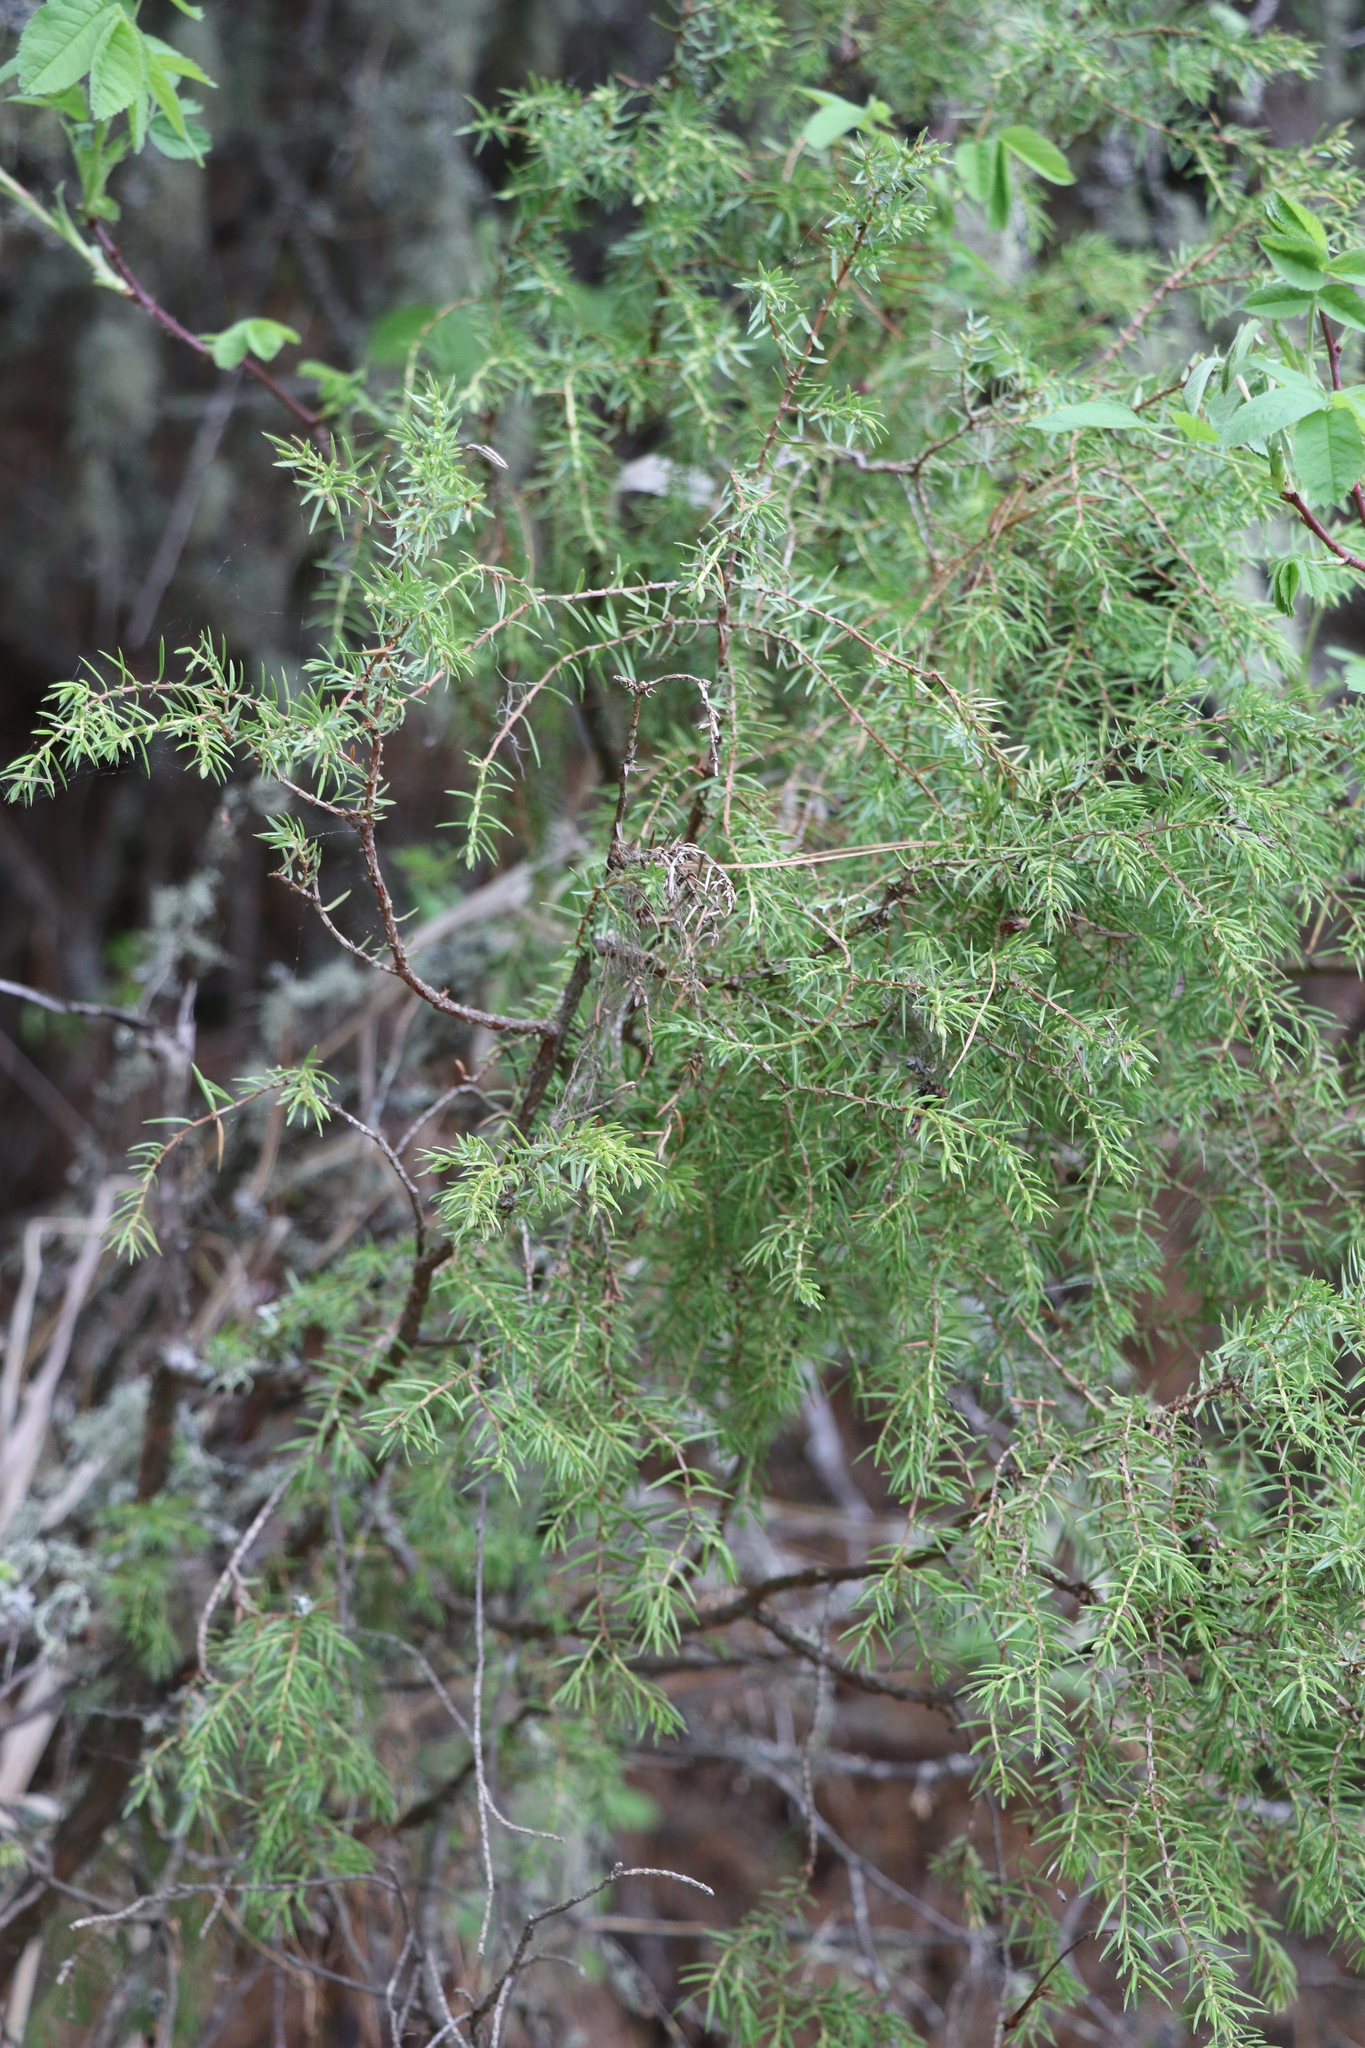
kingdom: Plantae
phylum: Tracheophyta
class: Pinopsida
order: Pinales
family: Cupressaceae
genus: Juniperus
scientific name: Juniperus communis
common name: Common juniper
